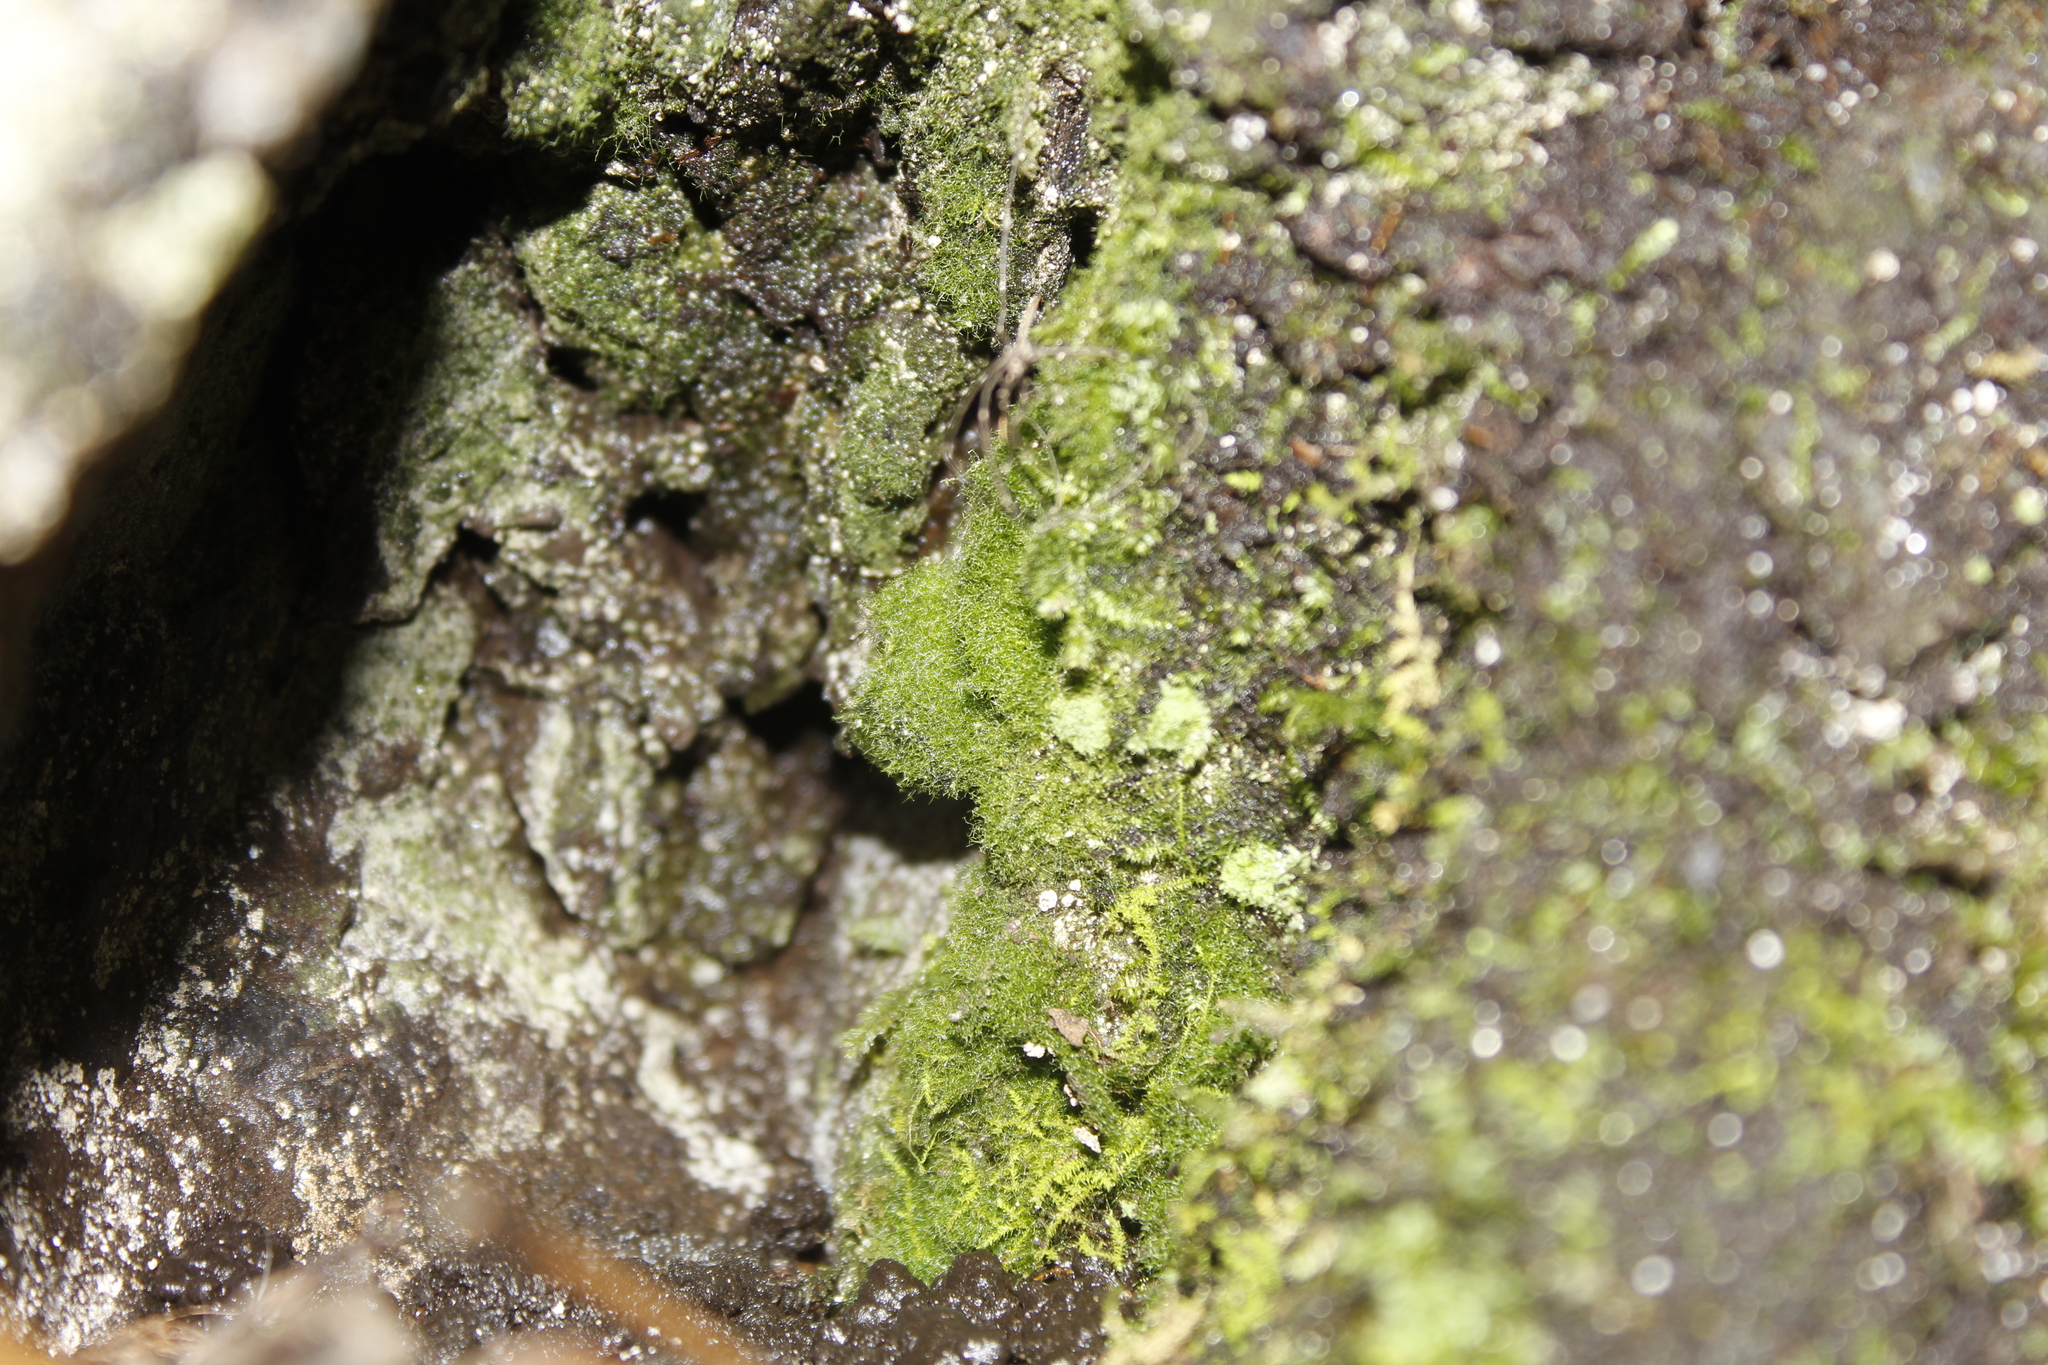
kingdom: Plantae
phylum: Tracheophyta
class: Polypodiopsida
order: Hymenophyllales
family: Hymenophyllaceae
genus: Crepidomanes
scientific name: Crepidomanes intricatum
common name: Weft fern
